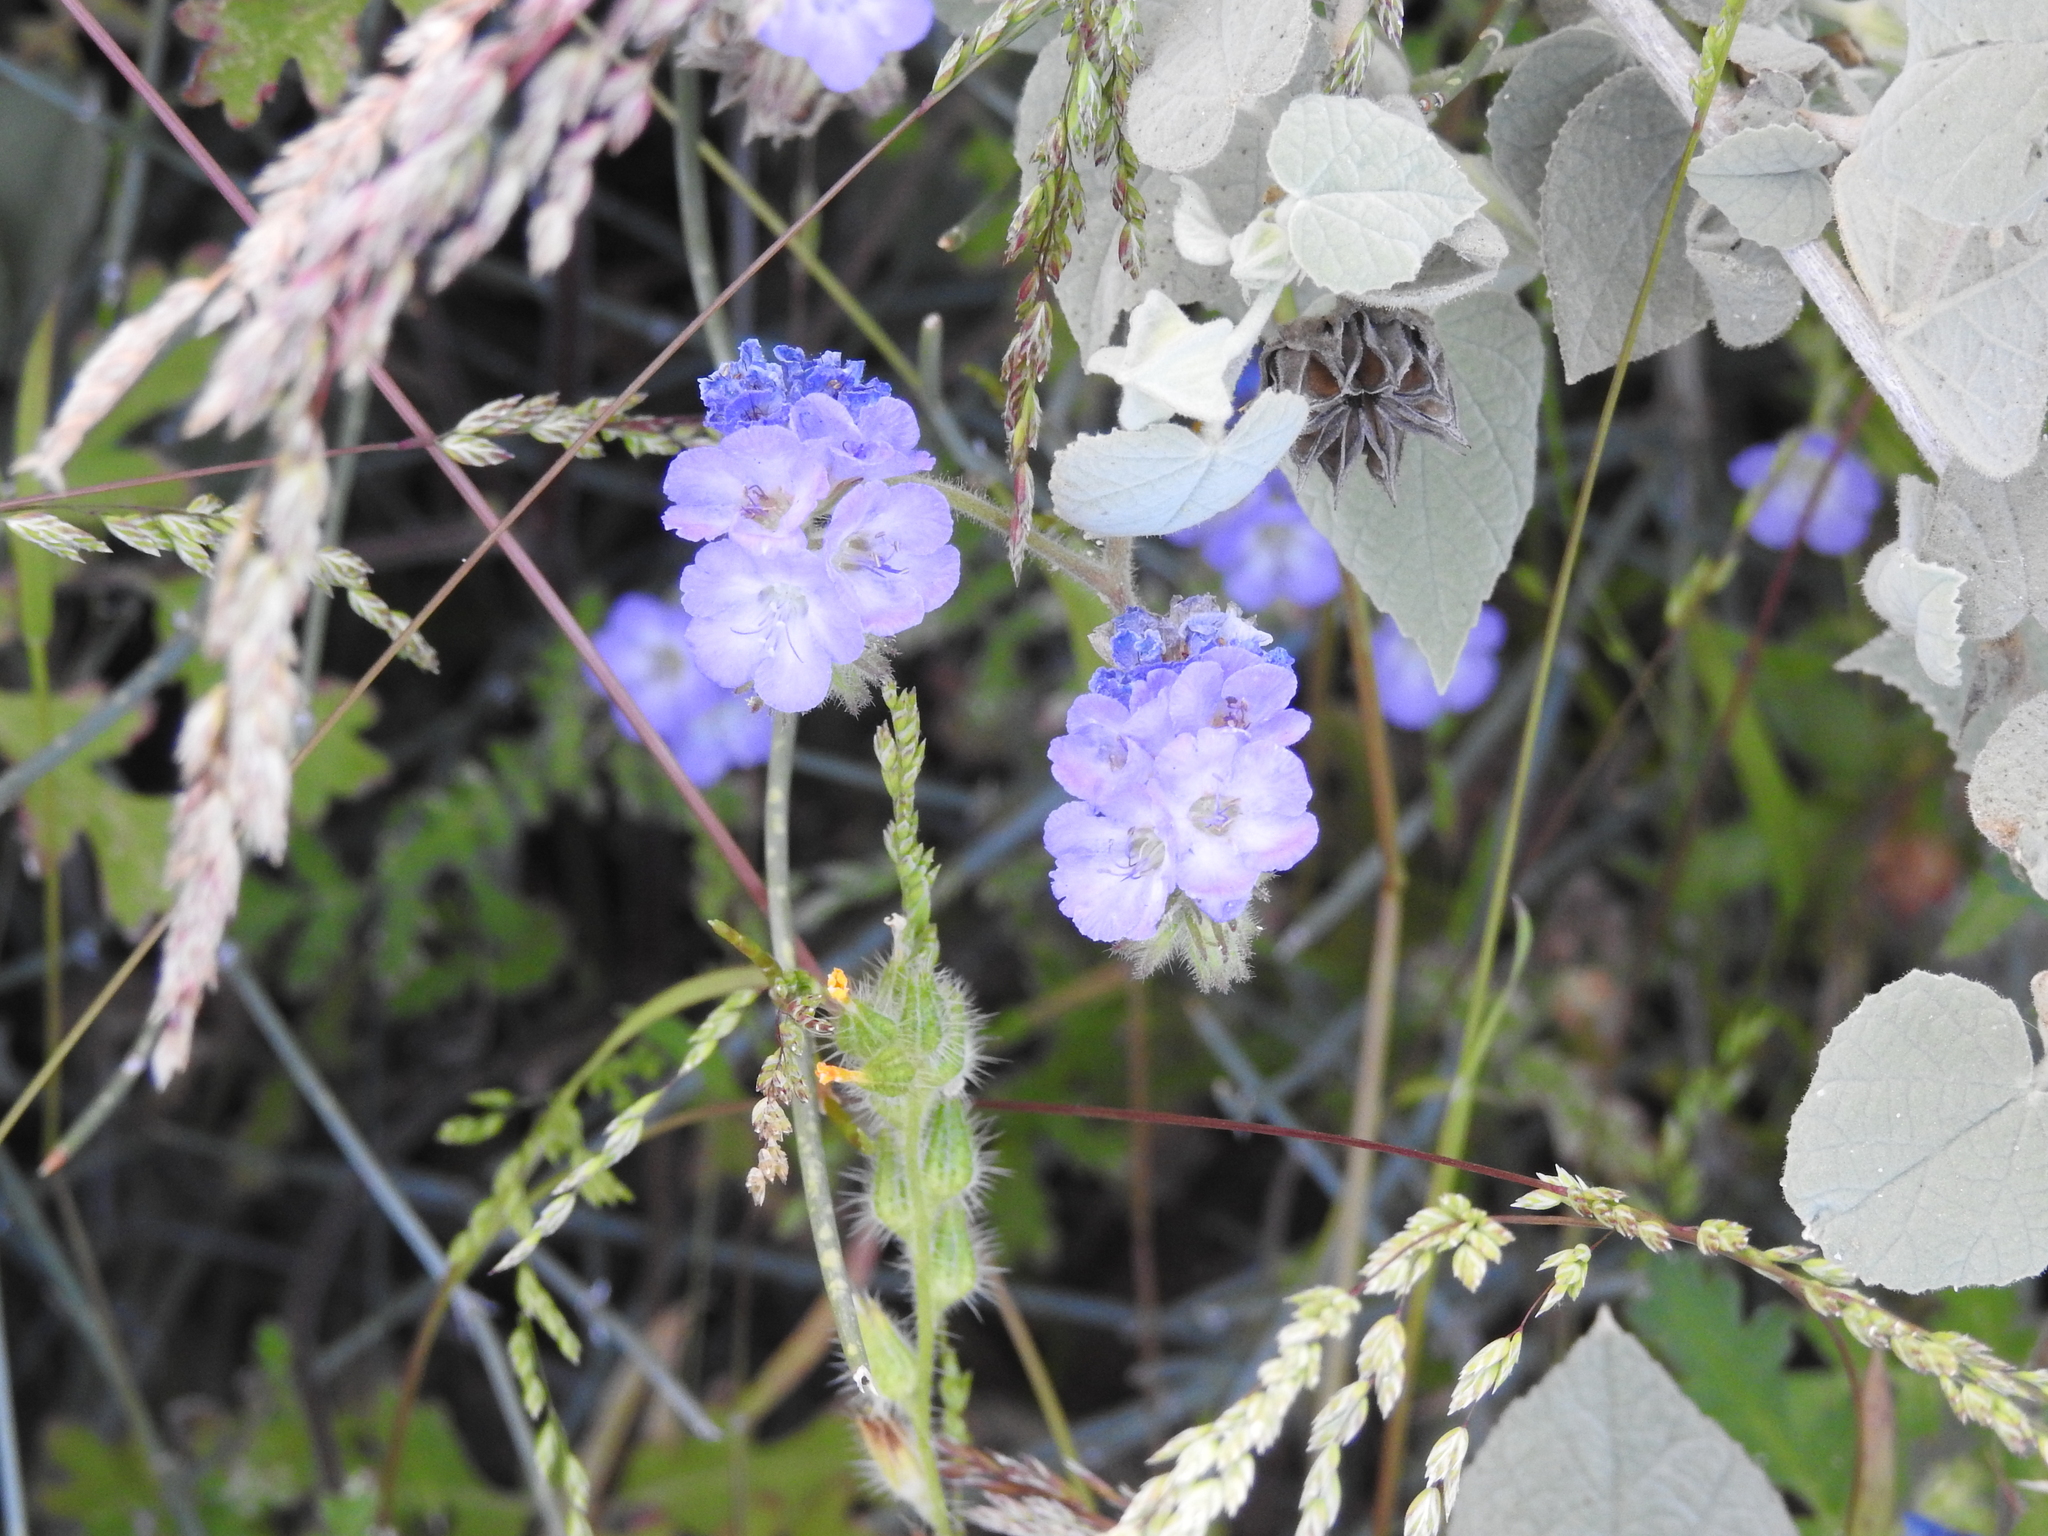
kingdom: Plantae
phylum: Tracheophyta
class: Magnoliopsida
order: Boraginales
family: Hydrophyllaceae
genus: Phacelia
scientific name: Phacelia distans
